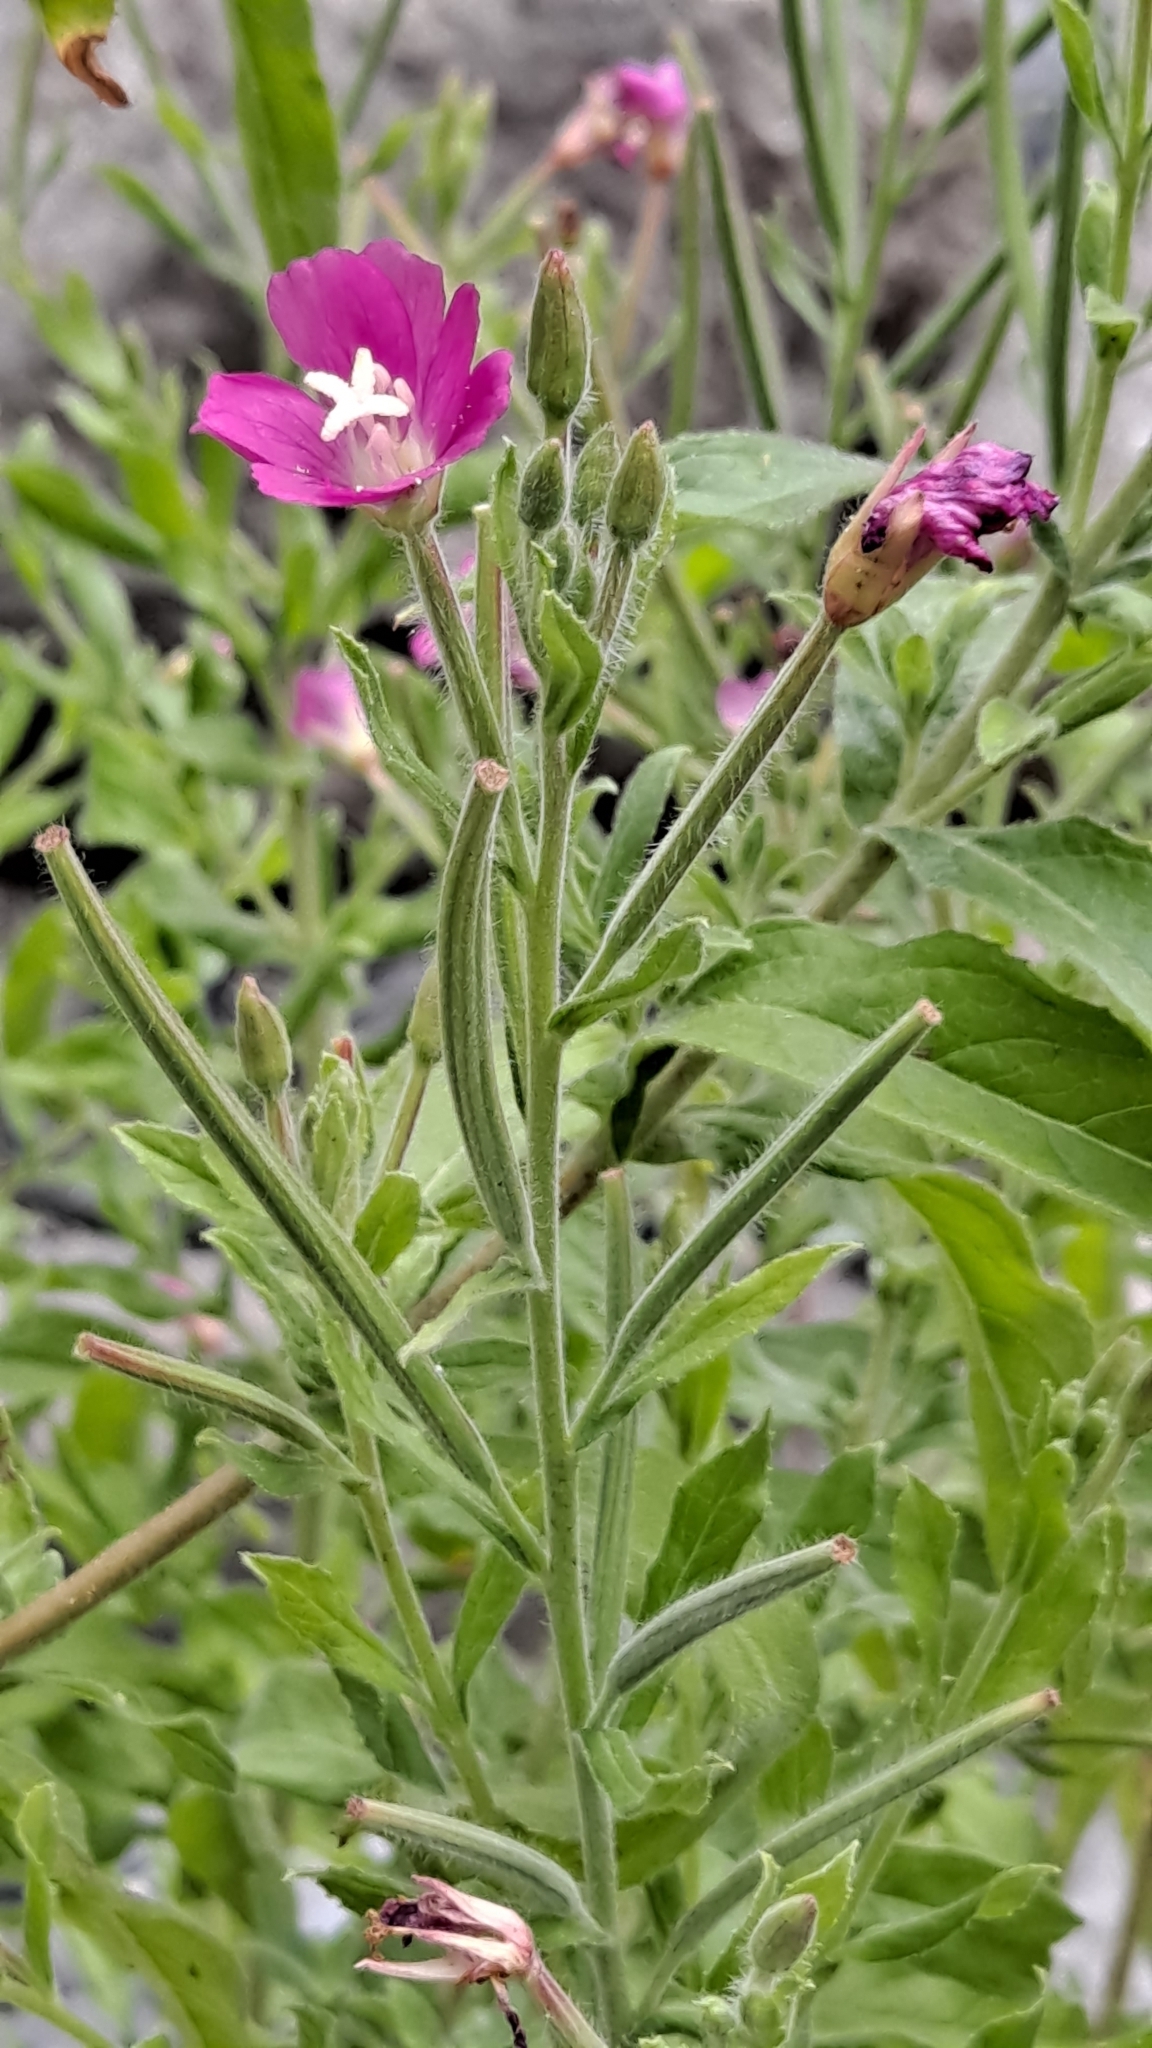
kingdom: Plantae
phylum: Tracheophyta
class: Magnoliopsida
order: Myrtales
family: Onagraceae
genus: Epilobium
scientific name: Epilobium hirsutum
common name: Great willowherb
